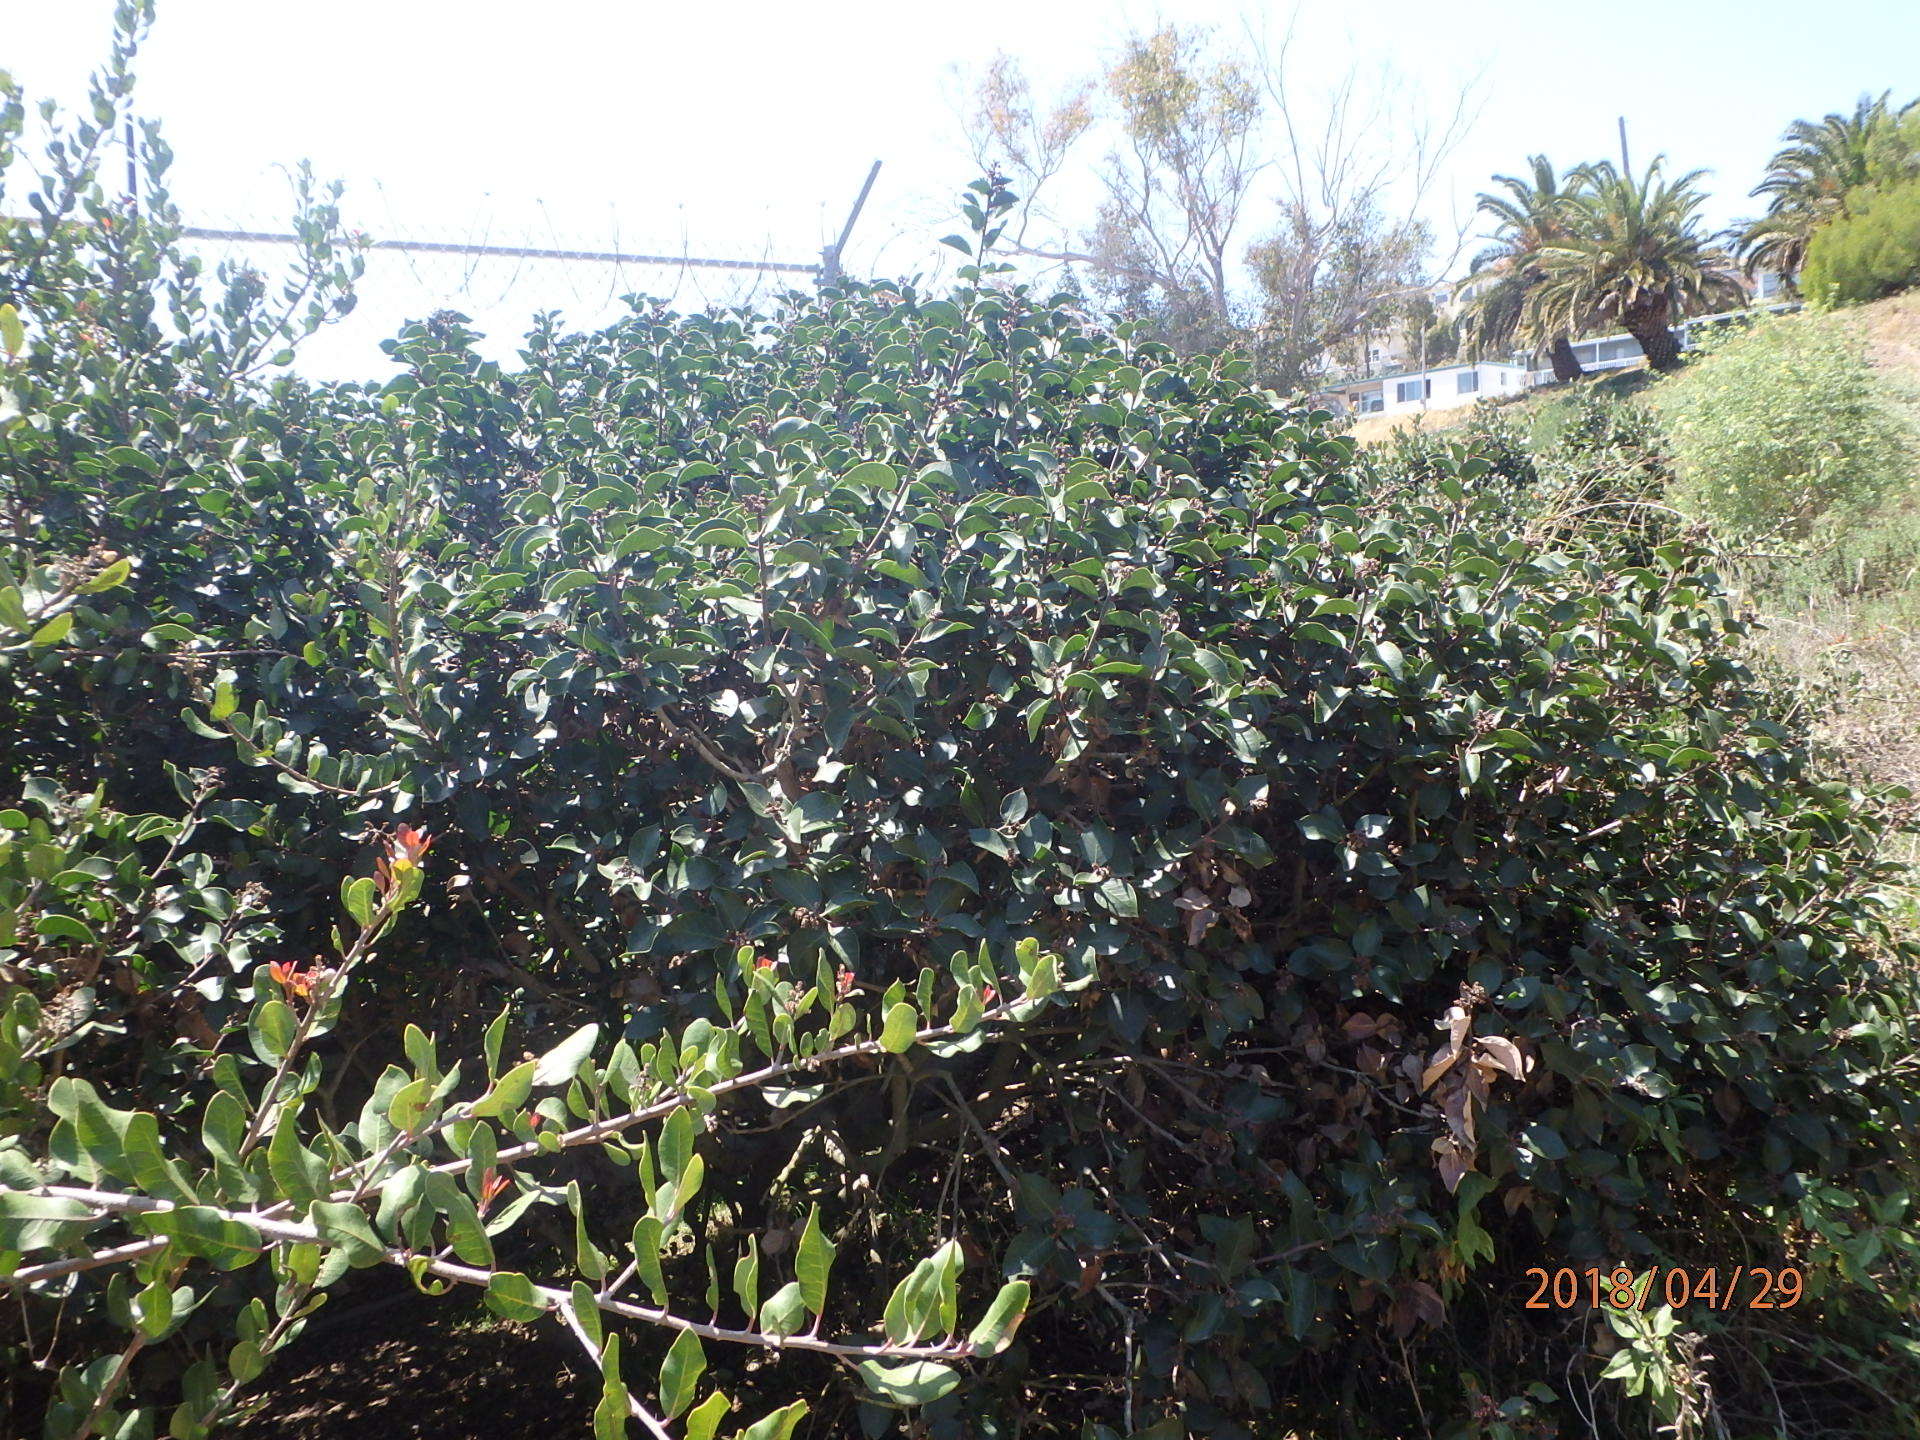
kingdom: Plantae
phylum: Tracheophyta
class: Magnoliopsida
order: Sapindales
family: Anacardiaceae
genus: Rhus
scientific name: Rhus ovata
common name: Sugar sumac
